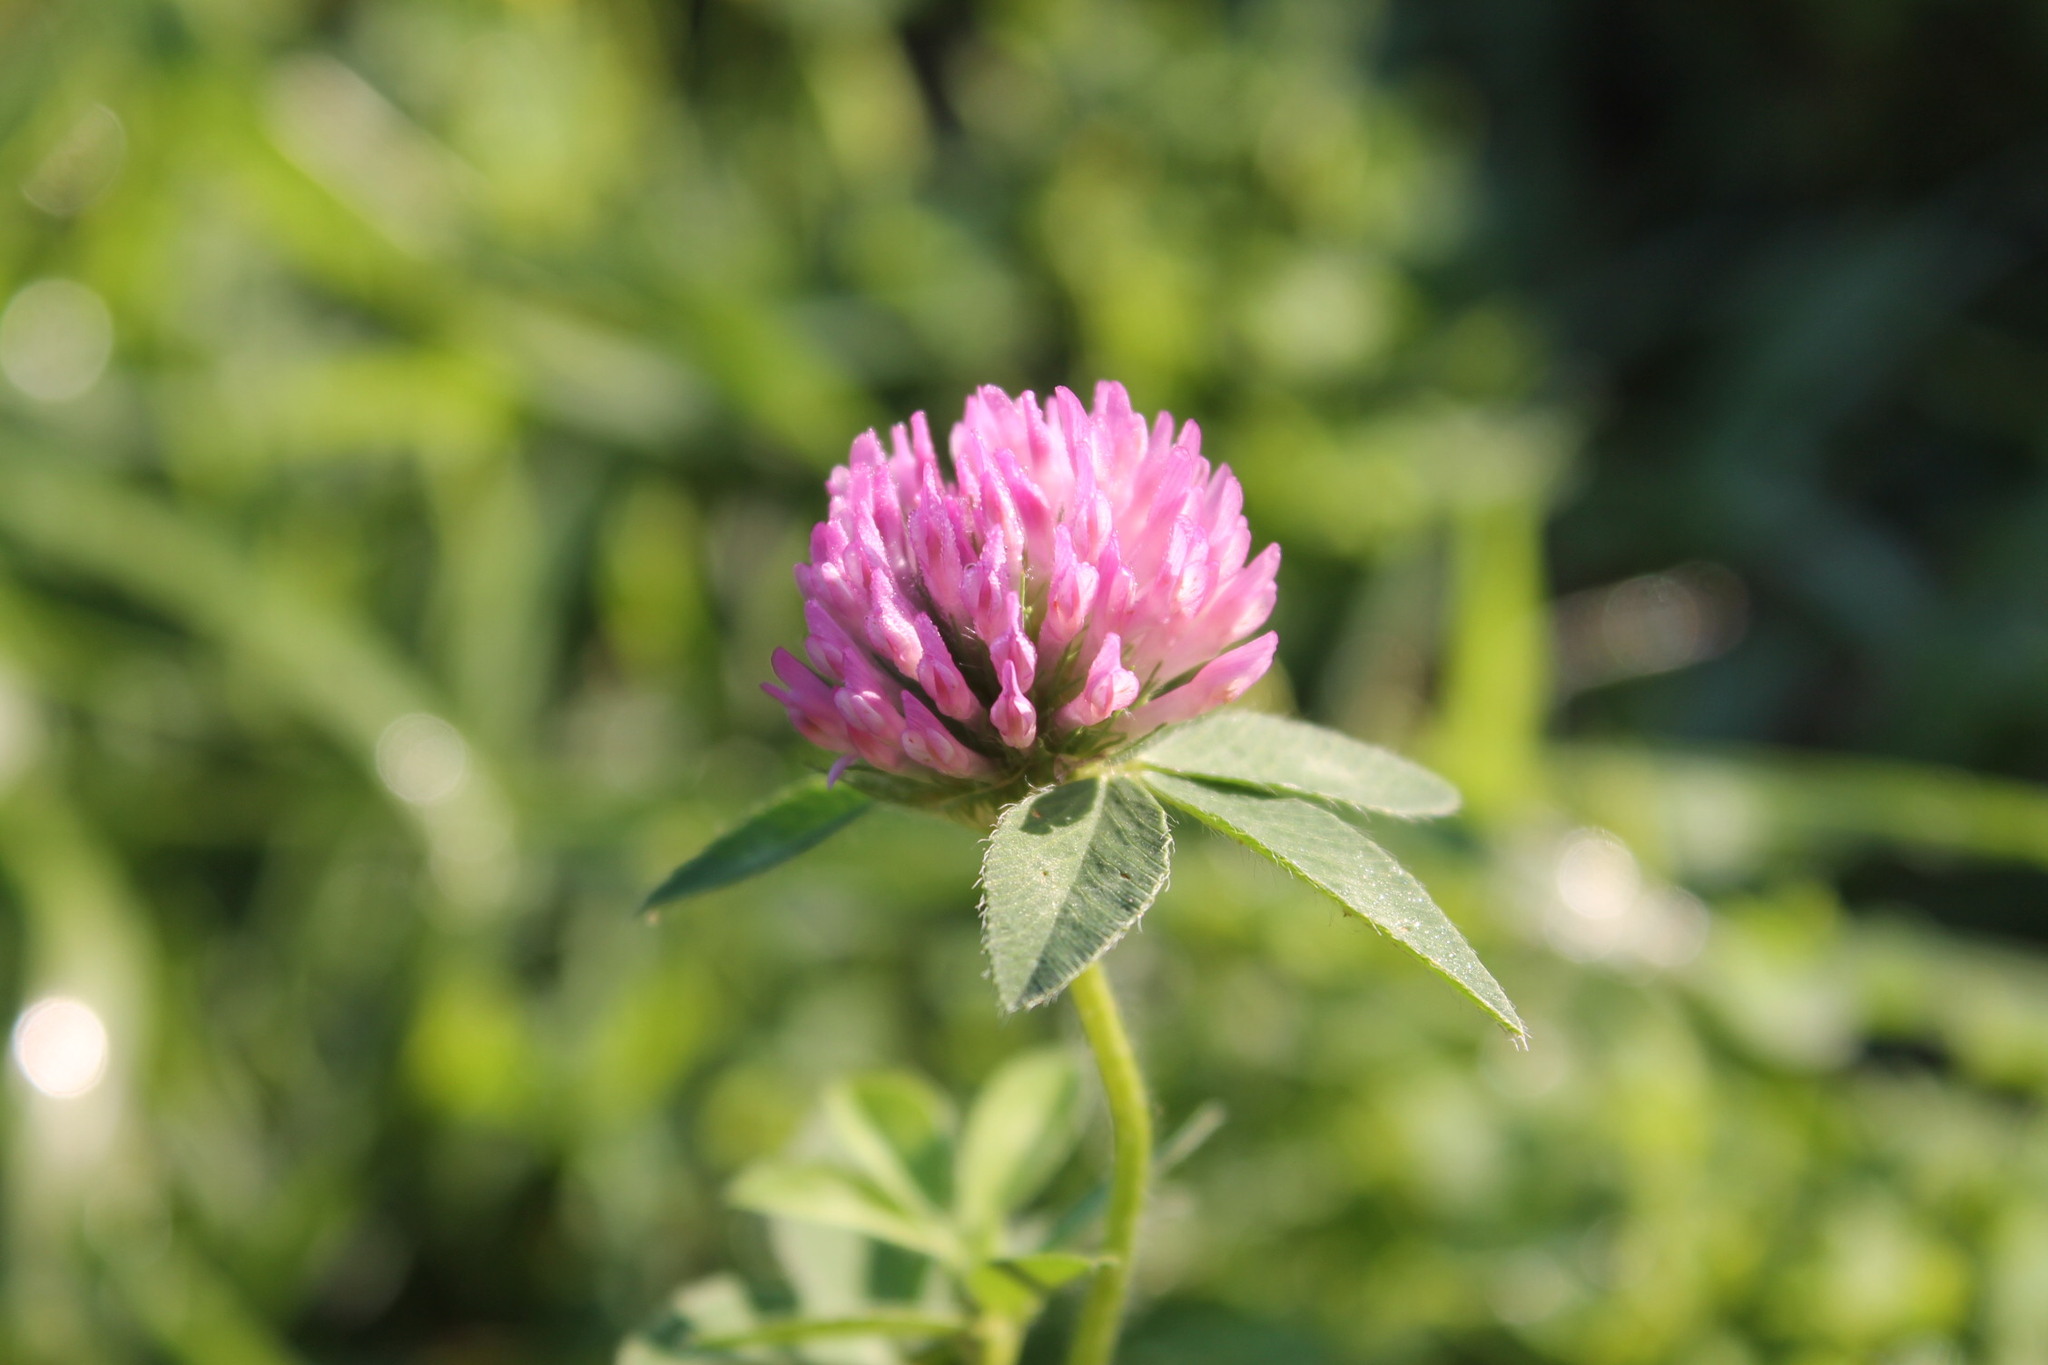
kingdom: Plantae
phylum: Tracheophyta
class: Magnoliopsida
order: Fabales
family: Fabaceae
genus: Trifolium
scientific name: Trifolium pratense
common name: Red clover
